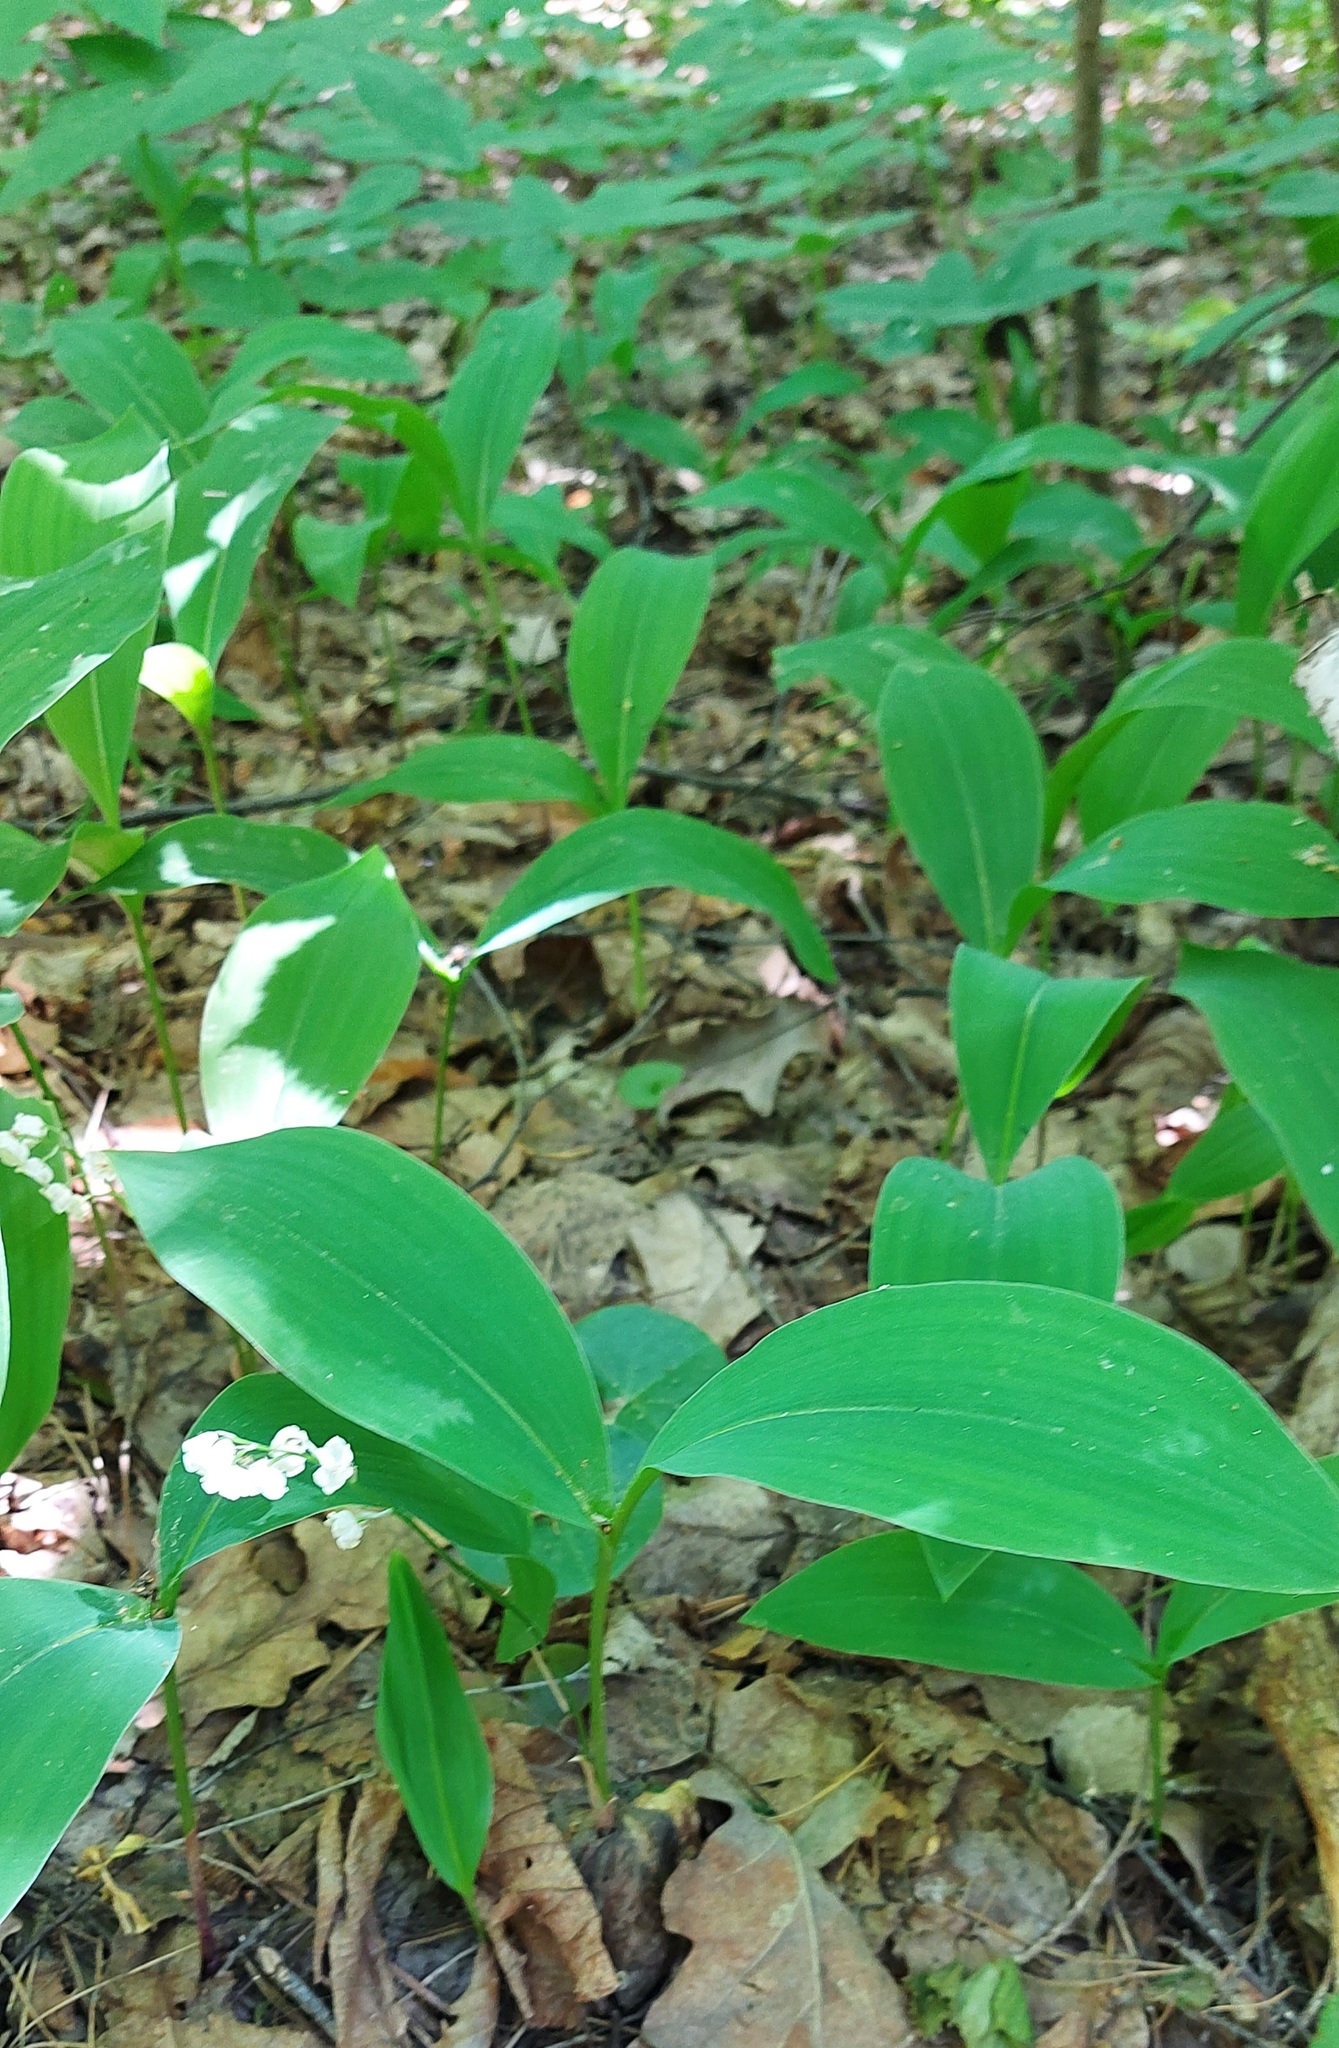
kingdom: Plantae
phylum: Tracheophyta
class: Liliopsida
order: Asparagales
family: Asparagaceae
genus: Convallaria
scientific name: Convallaria majalis
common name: Lily-of-the-valley
